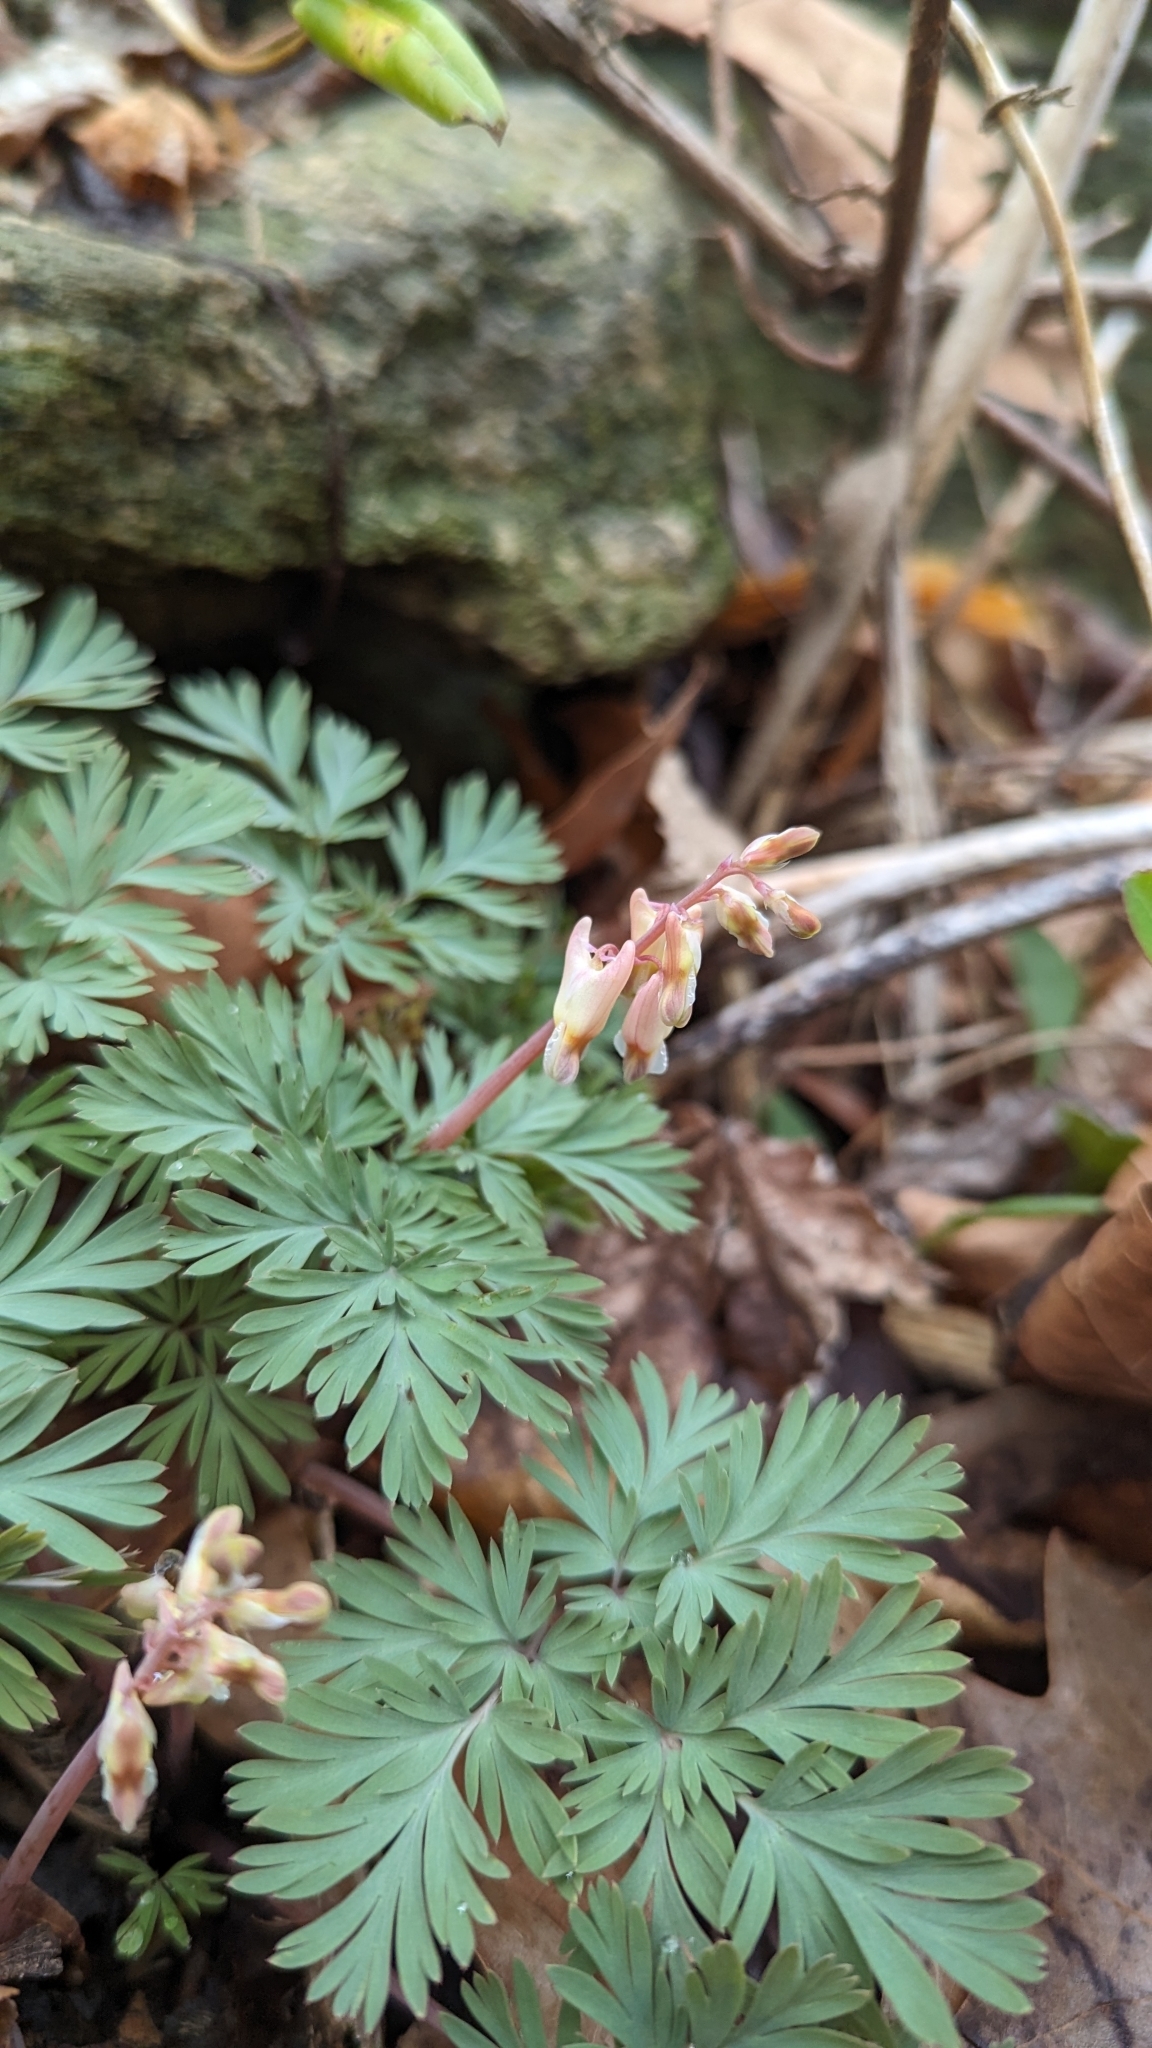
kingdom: Plantae
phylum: Tracheophyta
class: Magnoliopsida
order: Ranunculales
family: Papaveraceae
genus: Dicentra
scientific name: Dicentra cucullaria
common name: Dutchman's breeches
